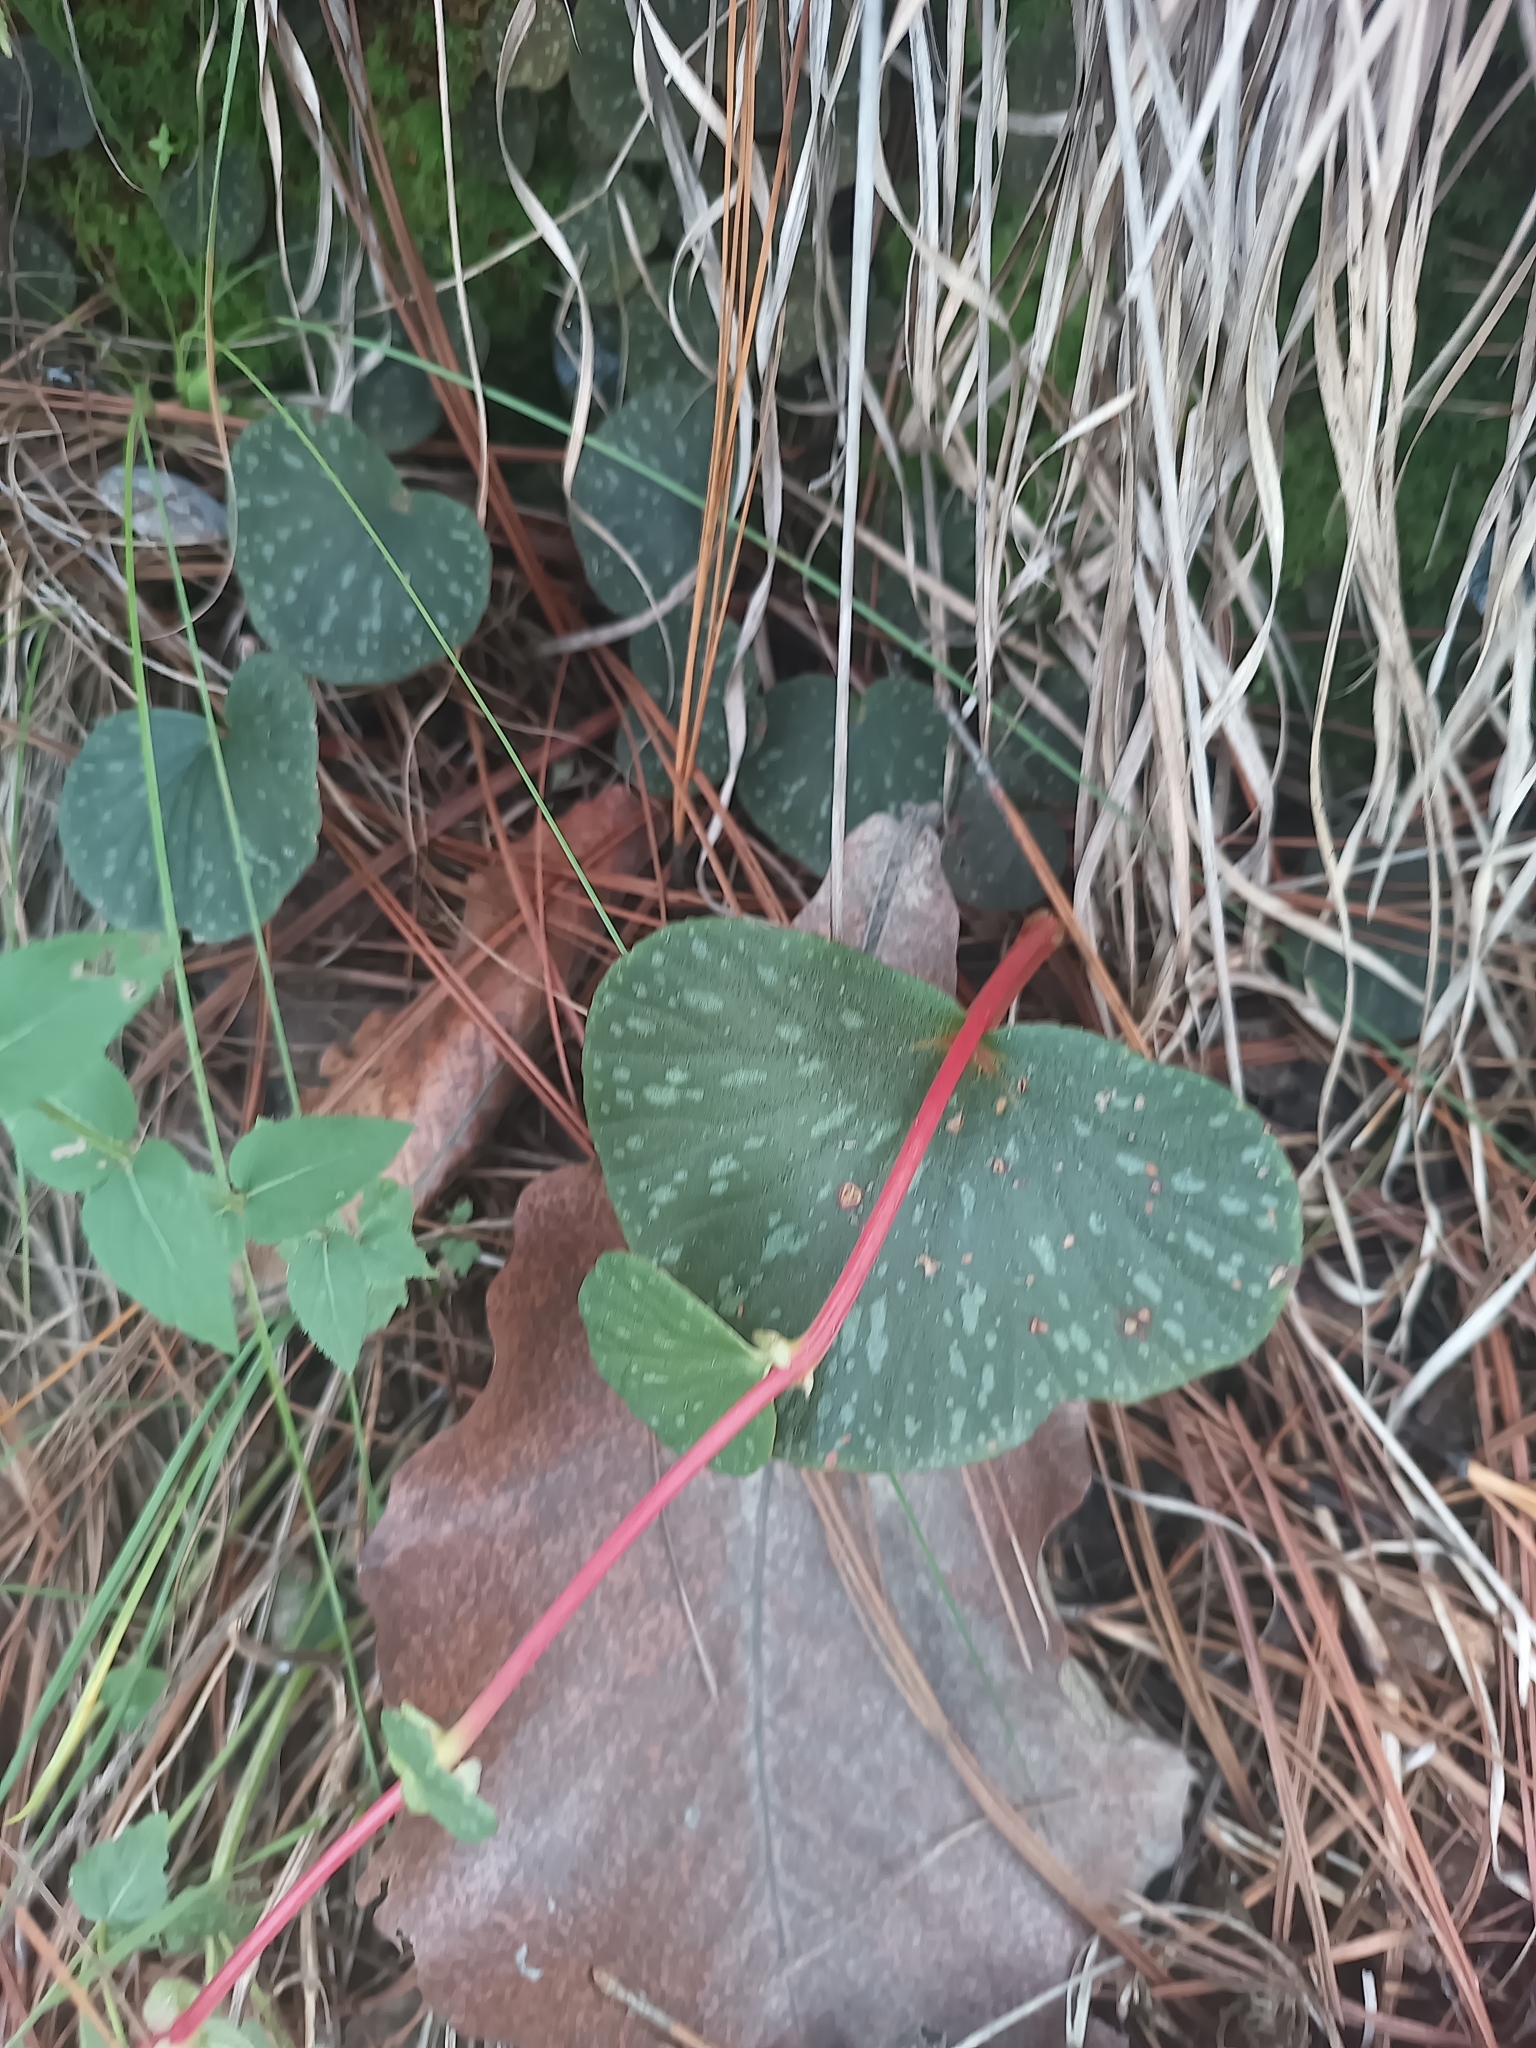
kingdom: Plantae
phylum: Tracheophyta
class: Magnoliopsida
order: Cucurbitales
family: Begoniaceae
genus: Begonia
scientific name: Begonia tapatia
